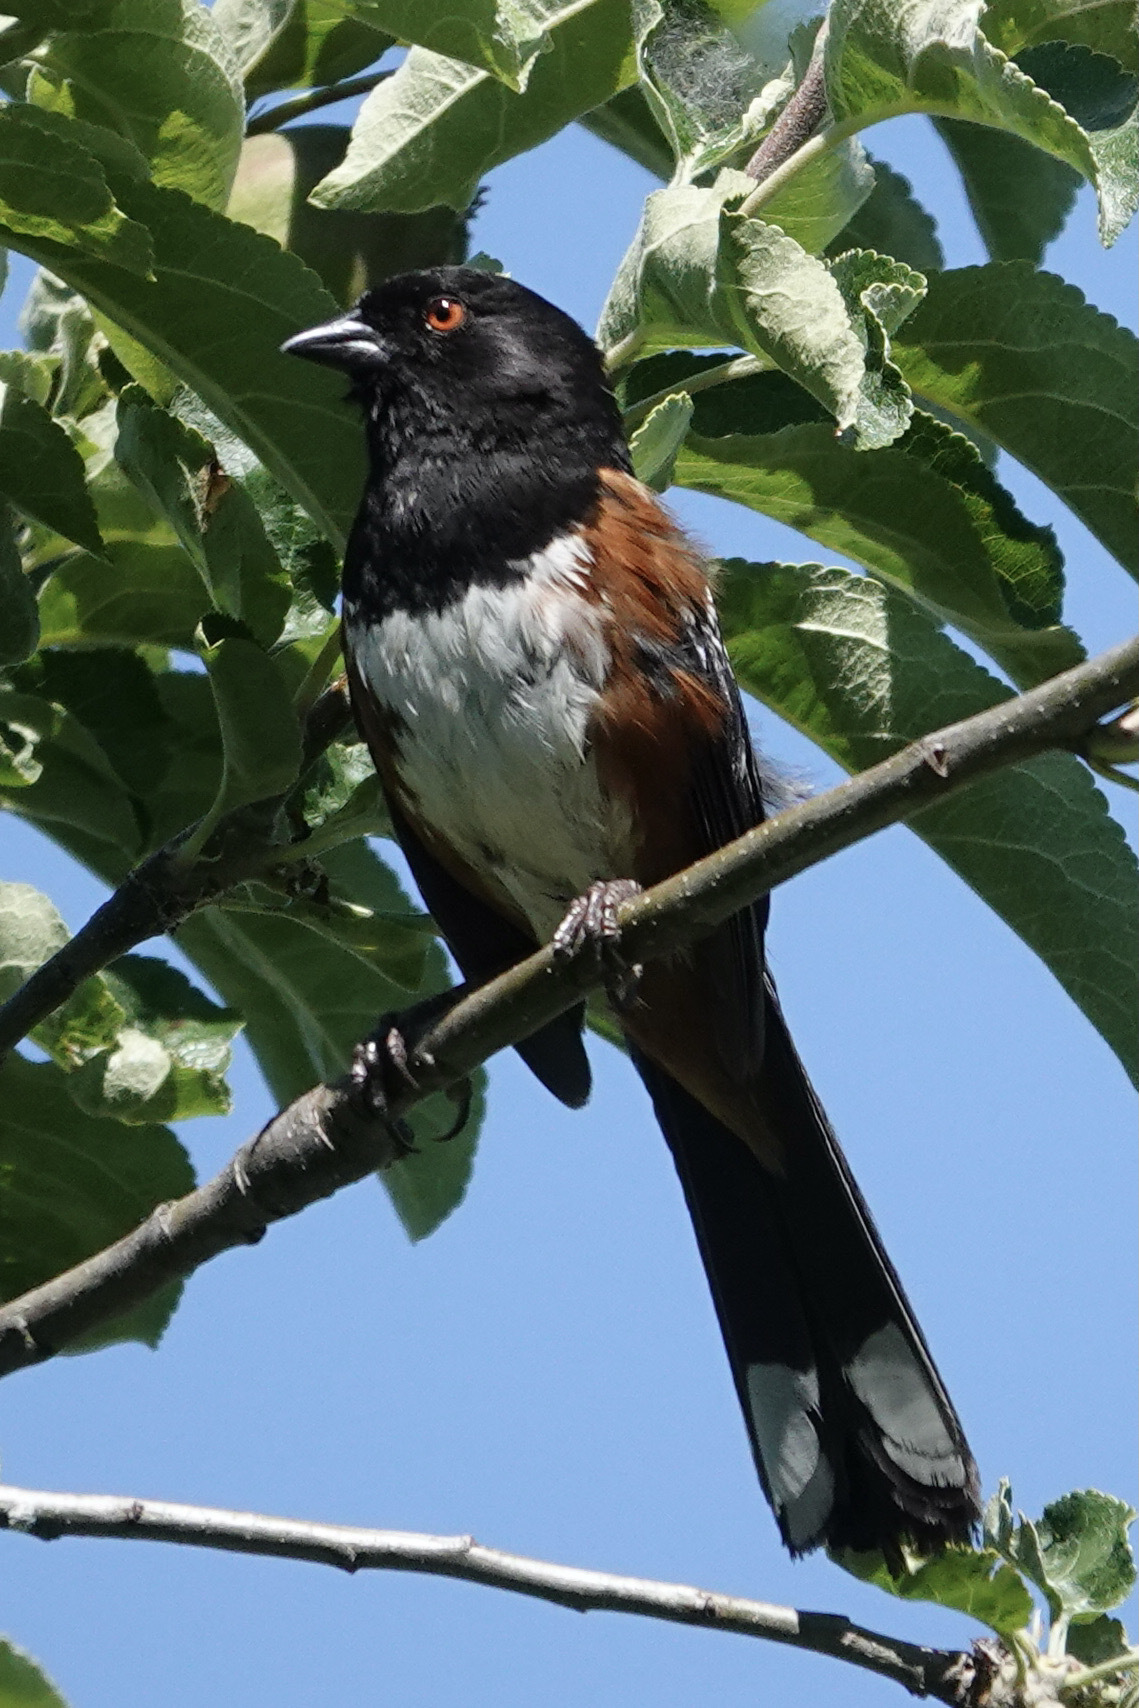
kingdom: Animalia
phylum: Chordata
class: Aves
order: Passeriformes
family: Passerellidae
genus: Pipilo
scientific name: Pipilo maculatus
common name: Spotted towhee
